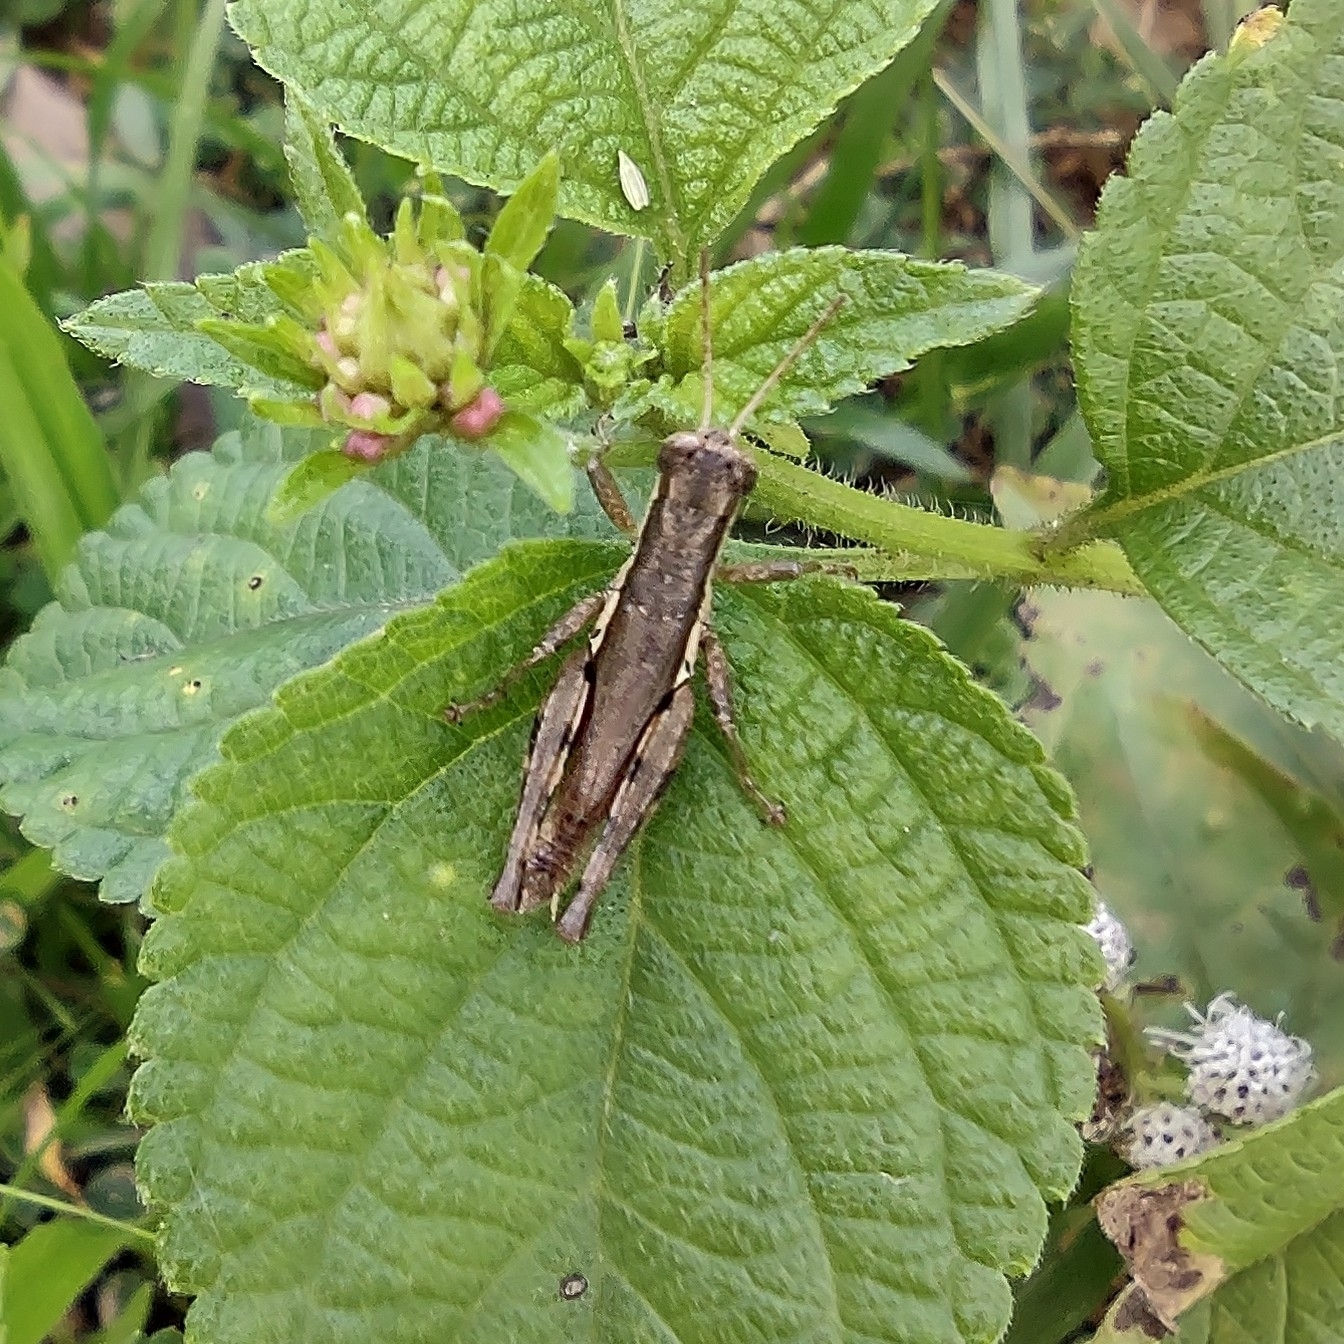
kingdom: Animalia
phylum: Arthropoda
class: Insecta
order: Orthoptera
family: Acrididae
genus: Pseudoxya
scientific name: Pseudoxya diminuta
